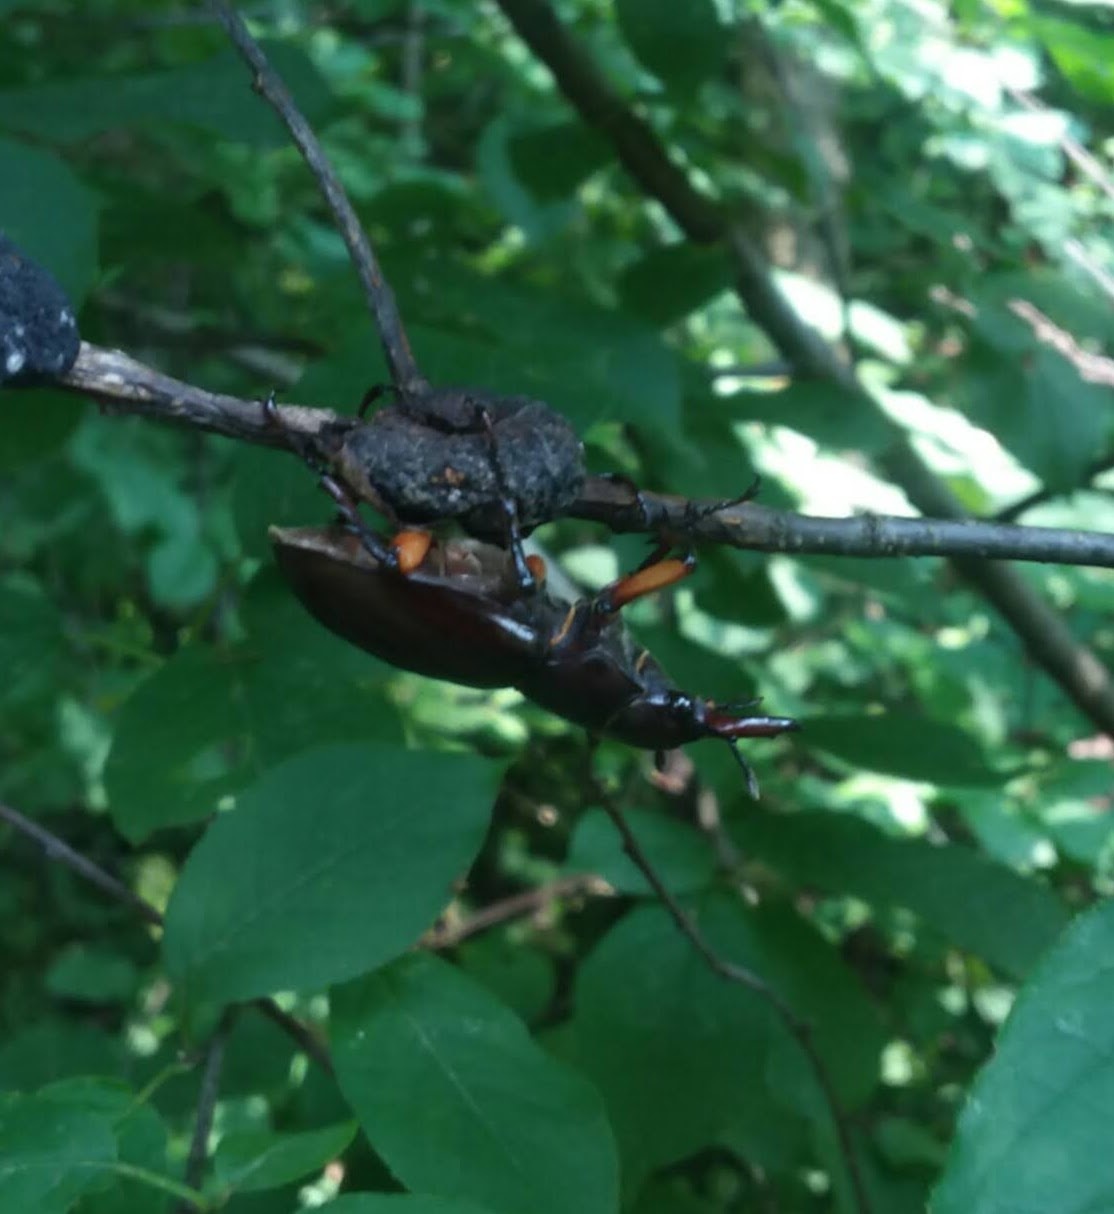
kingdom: Animalia
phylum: Arthropoda
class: Insecta
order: Coleoptera
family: Lucanidae
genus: Lucanus
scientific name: Lucanus capreolus
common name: Stag beetle
